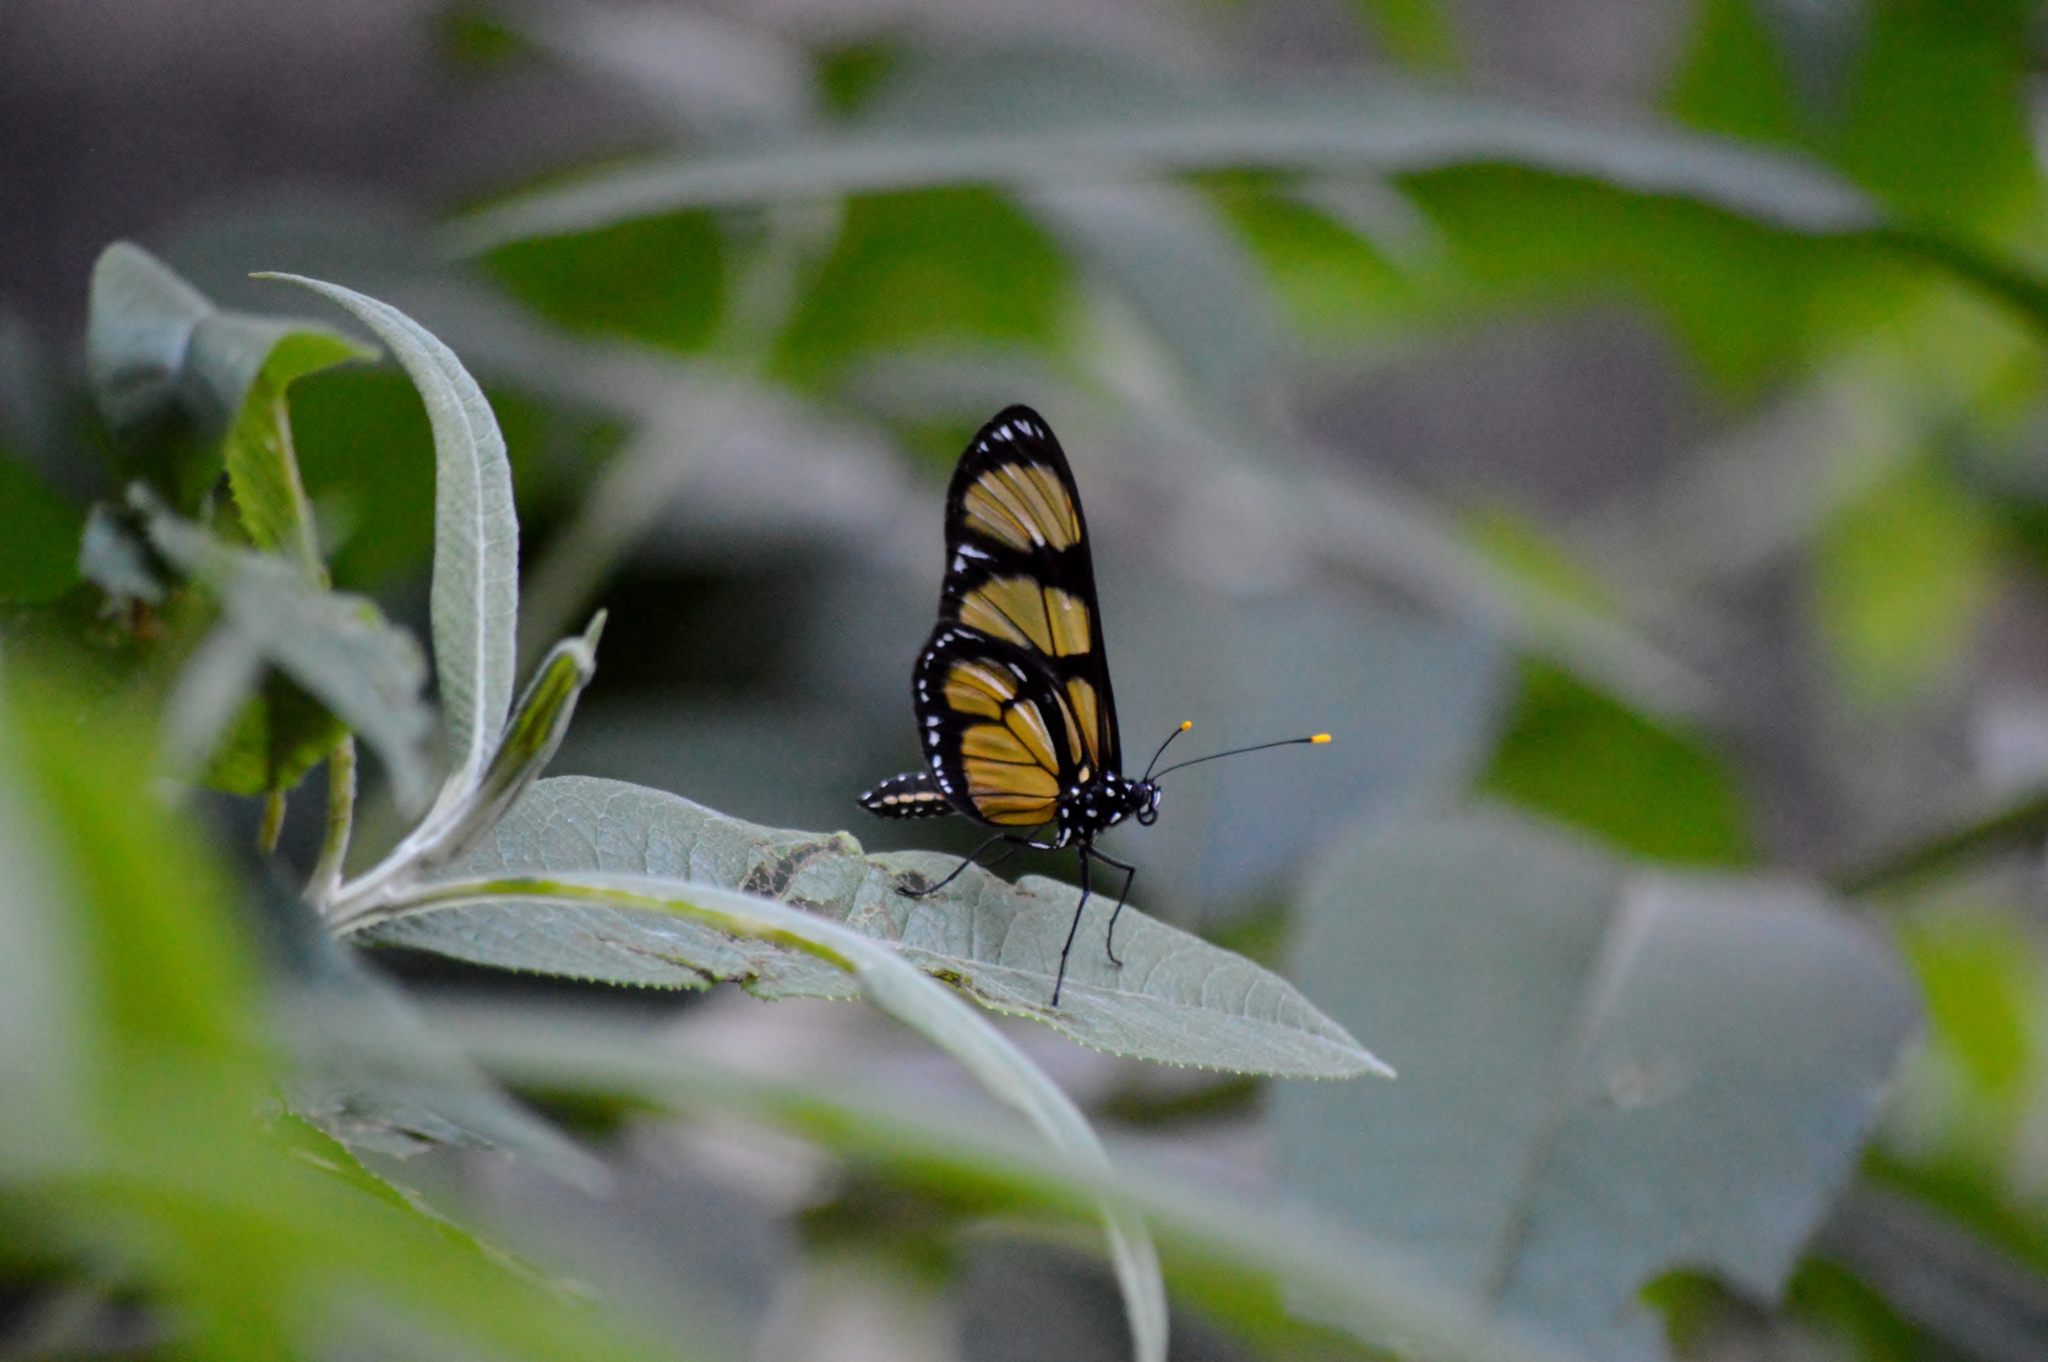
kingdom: Animalia
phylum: Arthropoda
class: Insecta
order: Lepidoptera
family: Nymphalidae
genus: Methona
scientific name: Methona themisto
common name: Themisto amberwing
